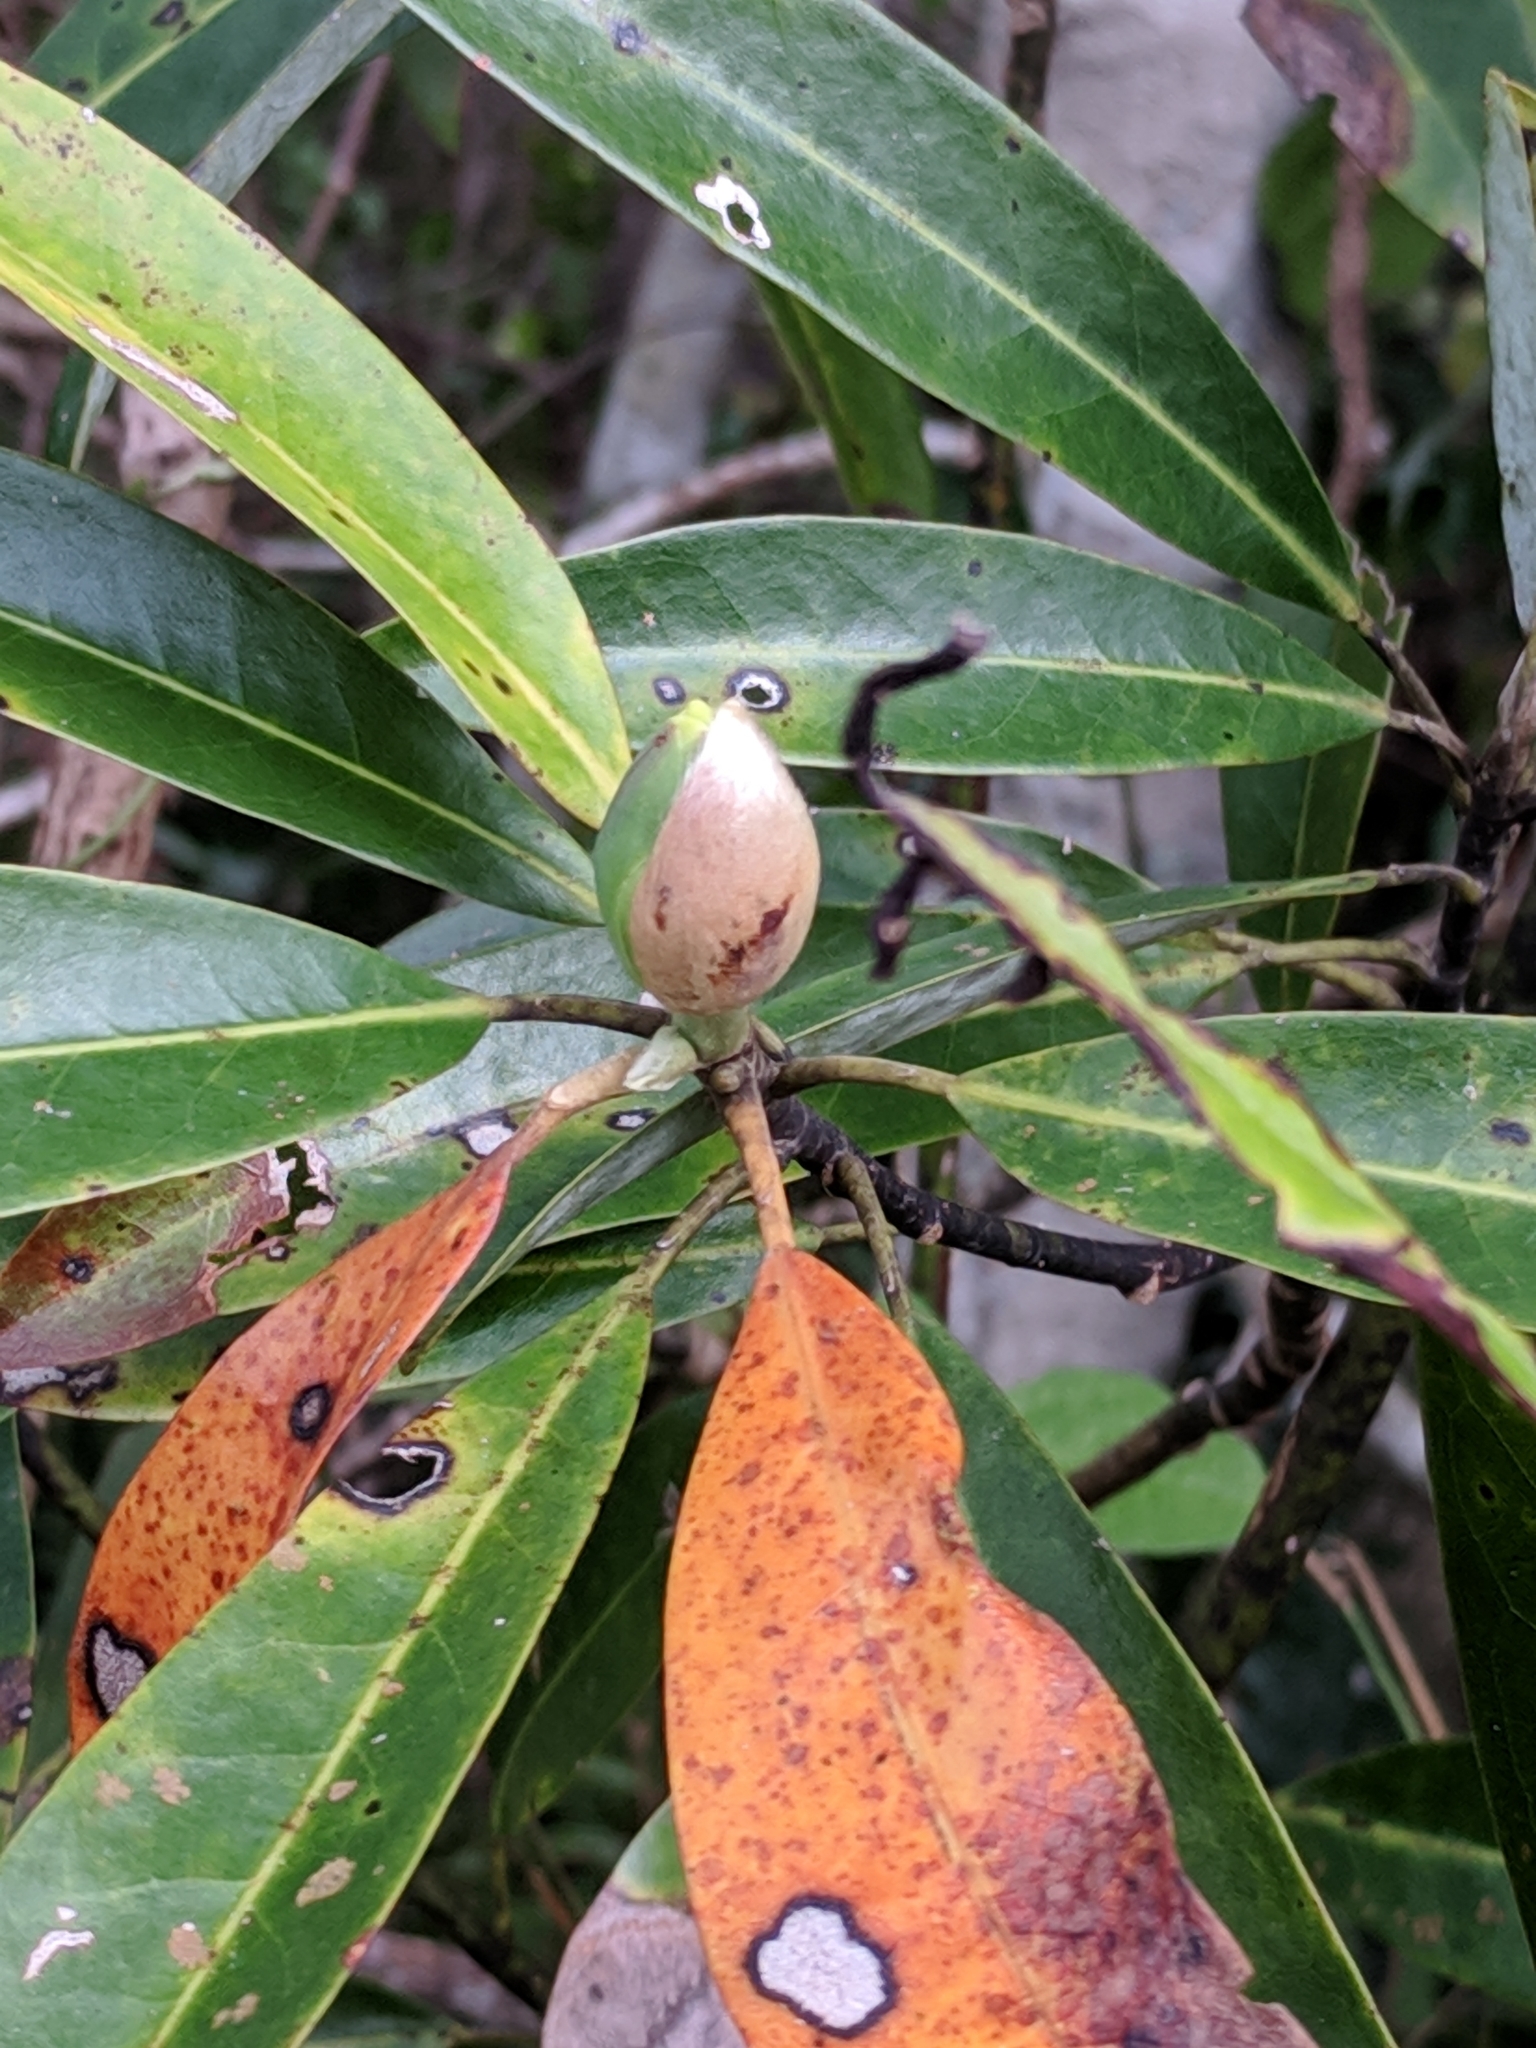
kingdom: Plantae
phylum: Tracheophyta
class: Magnoliopsida
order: Magnoliales
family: Magnoliaceae
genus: Magnolia
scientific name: Magnolia virginiana
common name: Swamp bay
